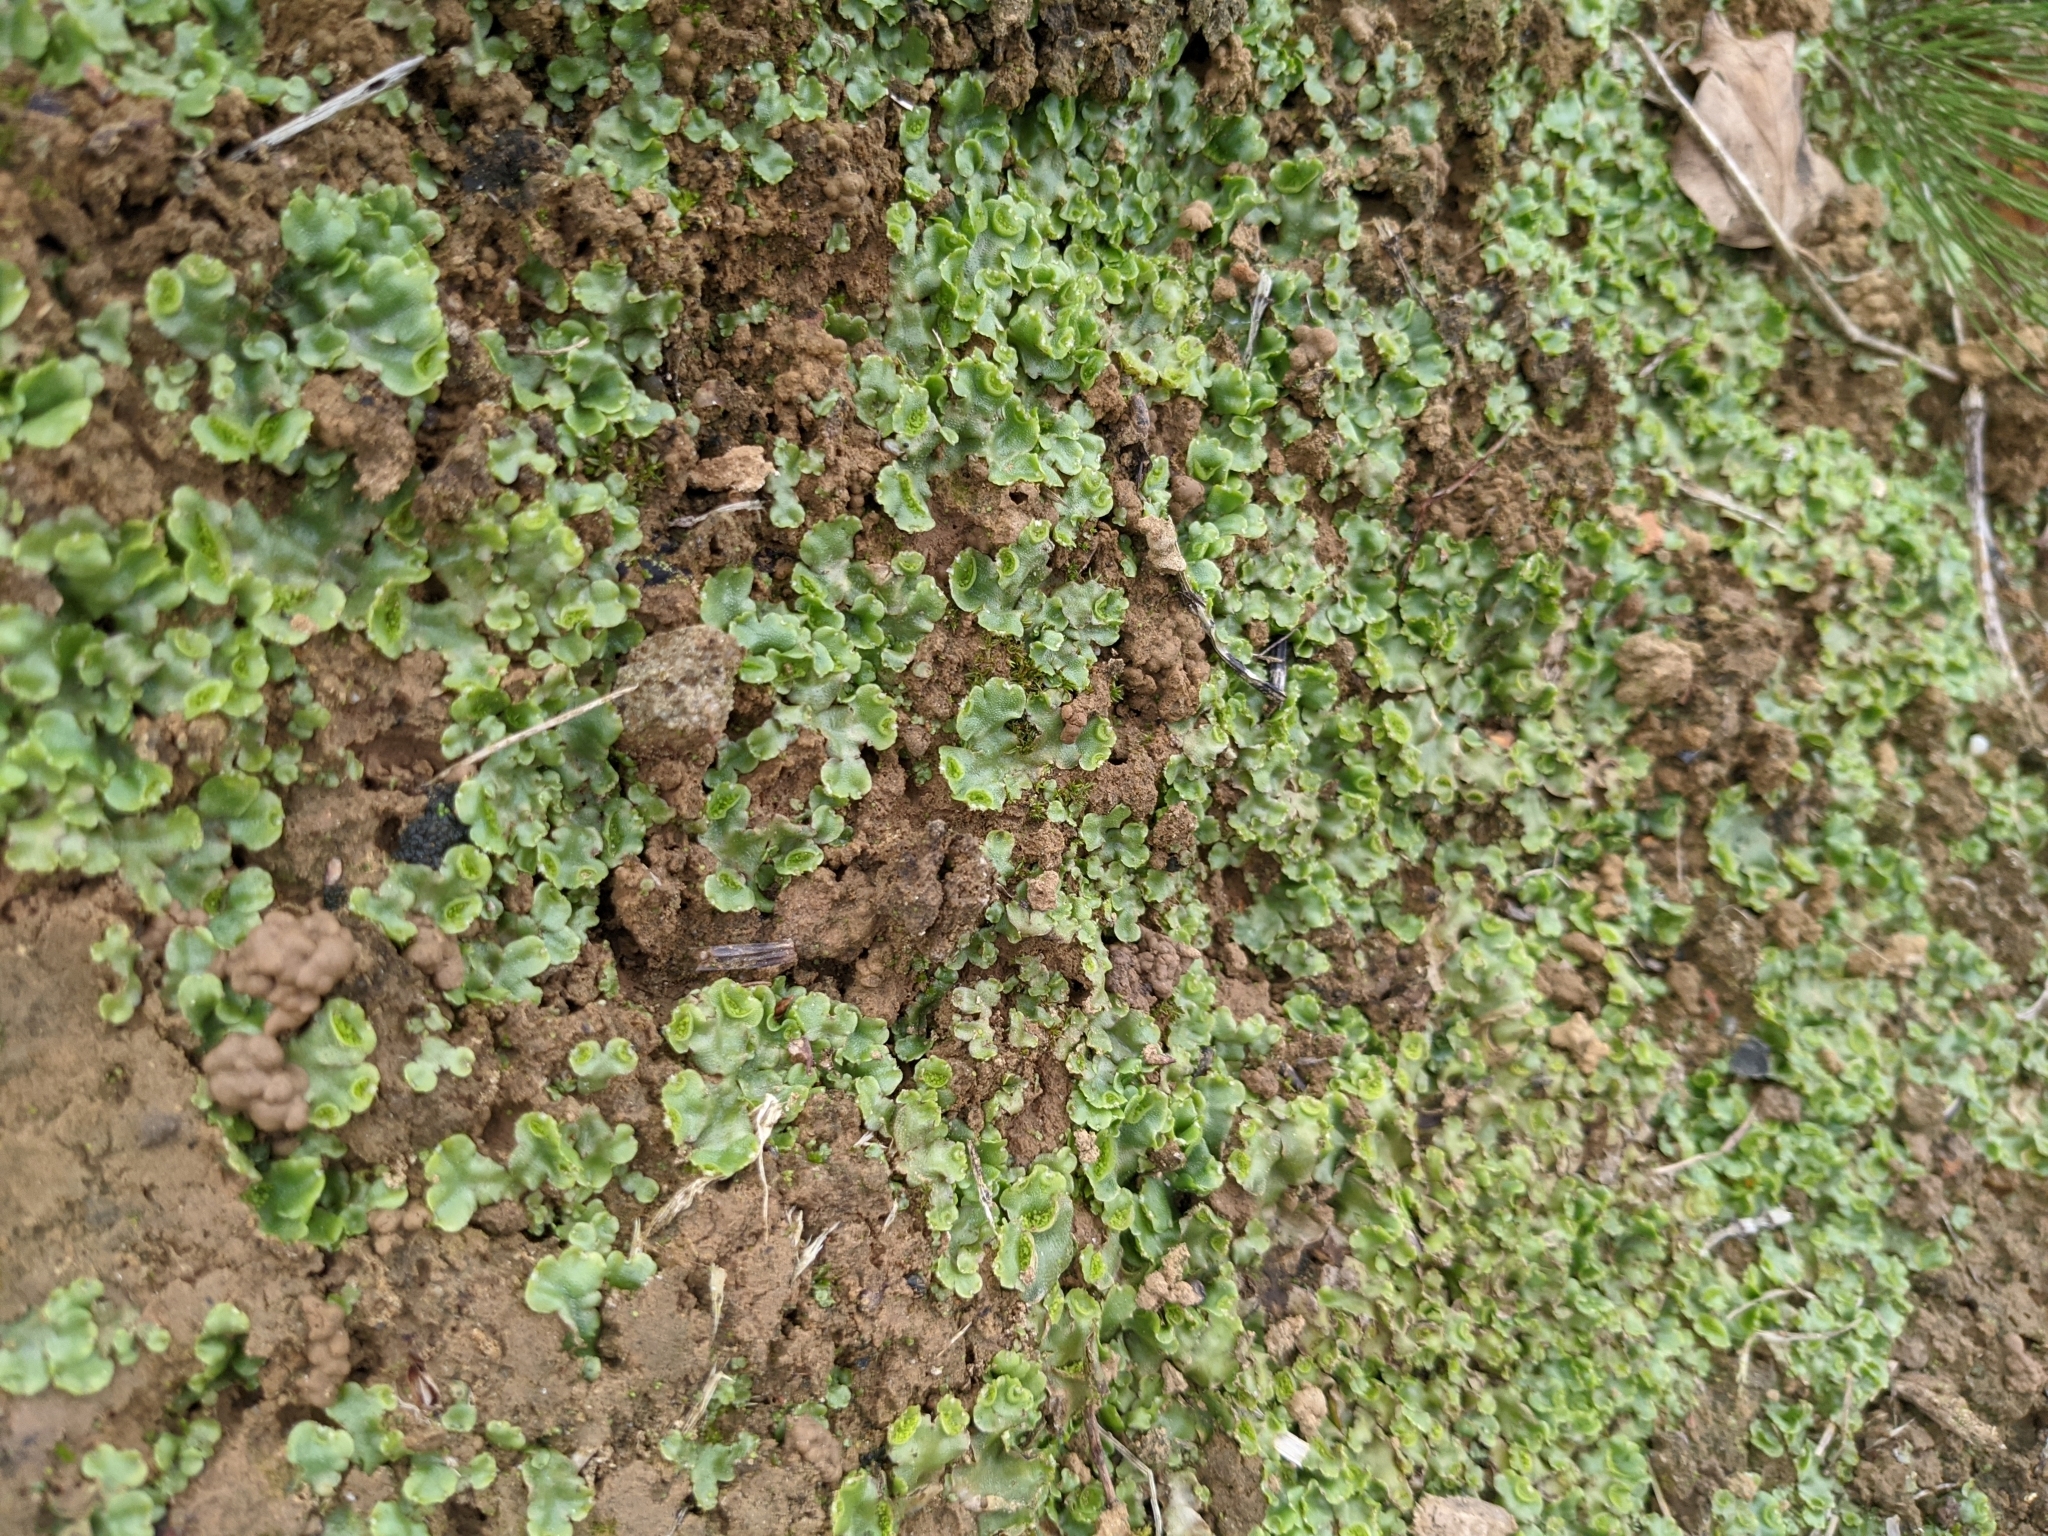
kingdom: Plantae
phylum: Marchantiophyta
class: Marchantiopsida
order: Lunulariales
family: Lunulariaceae
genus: Lunularia
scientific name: Lunularia cruciata
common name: Crescent-cup liverwort
